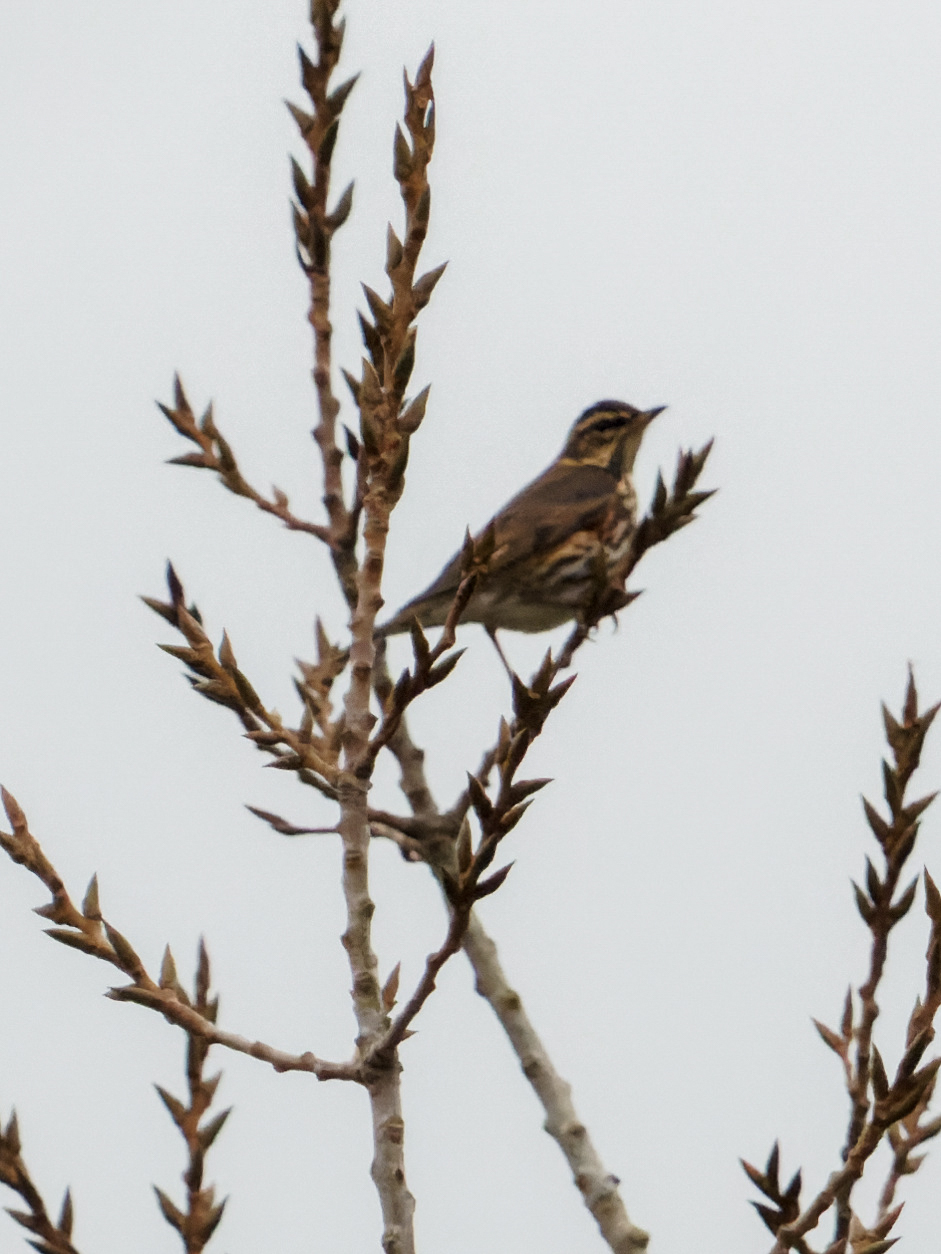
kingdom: Animalia
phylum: Chordata
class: Aves
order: Passeriformes
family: Turdidae
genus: Turdus
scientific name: Turdus iliacus
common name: Redwing
